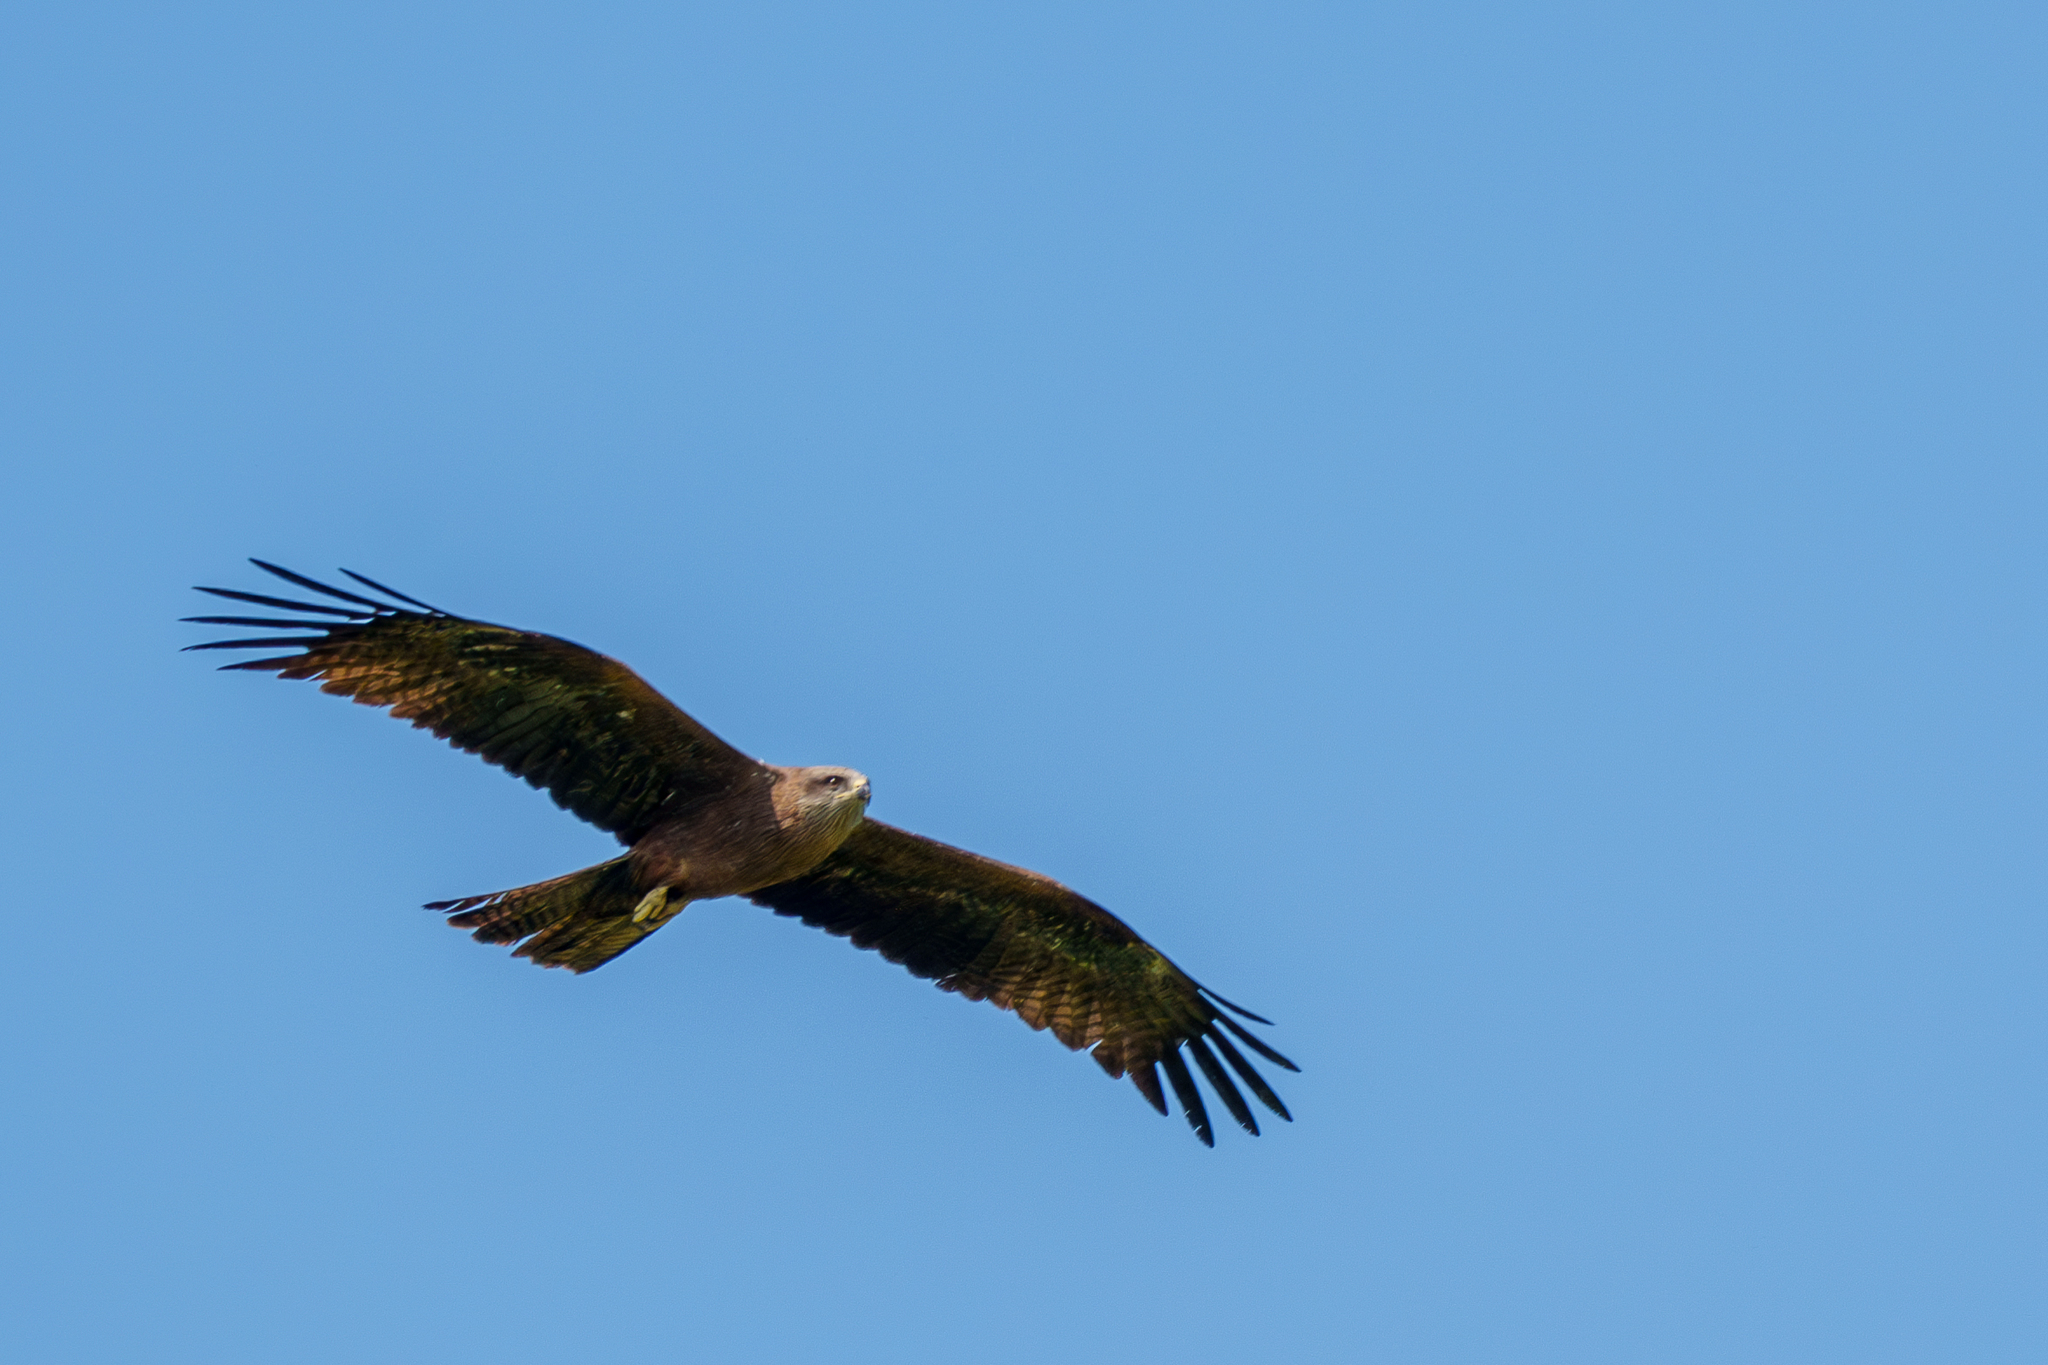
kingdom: Animalia
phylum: Chordata
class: Aves
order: Accipitriformes
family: Accipitridae
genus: Milvus
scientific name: Milvus migrans
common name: Black kite
